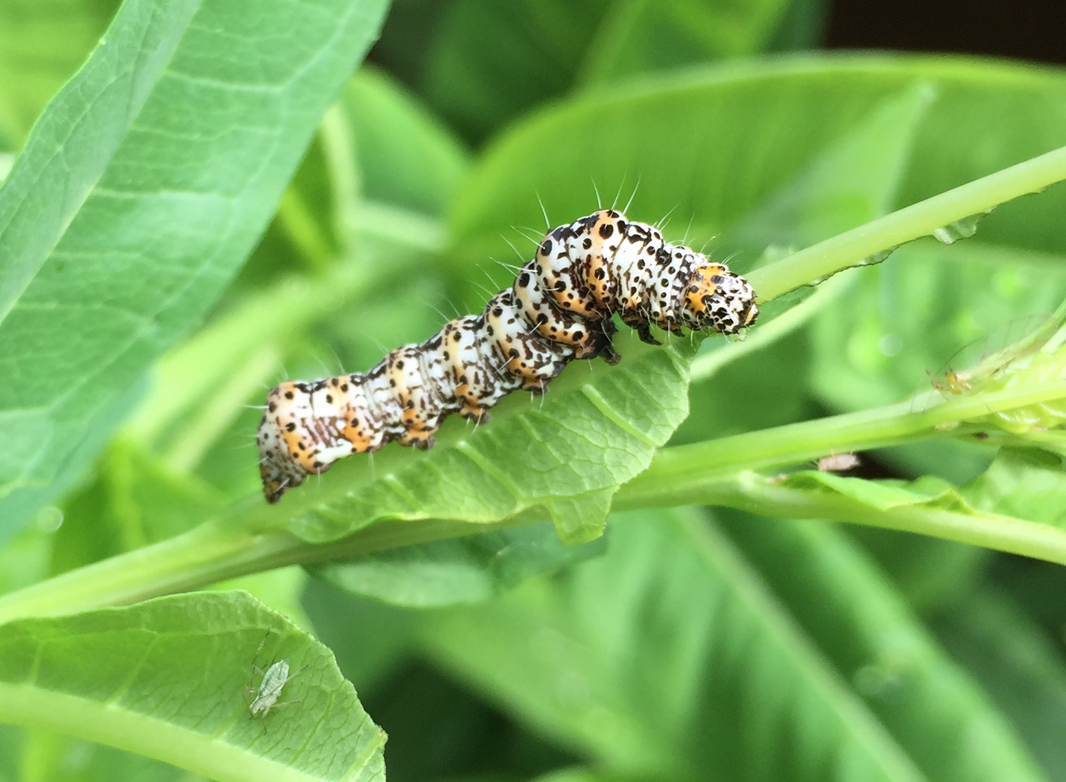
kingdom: Animalia
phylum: Arthropoda
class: Insecta
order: Lepidoptera
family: Noctuidae
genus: Alypia
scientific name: Alypia langtonii
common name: Fireweed caterpillar
